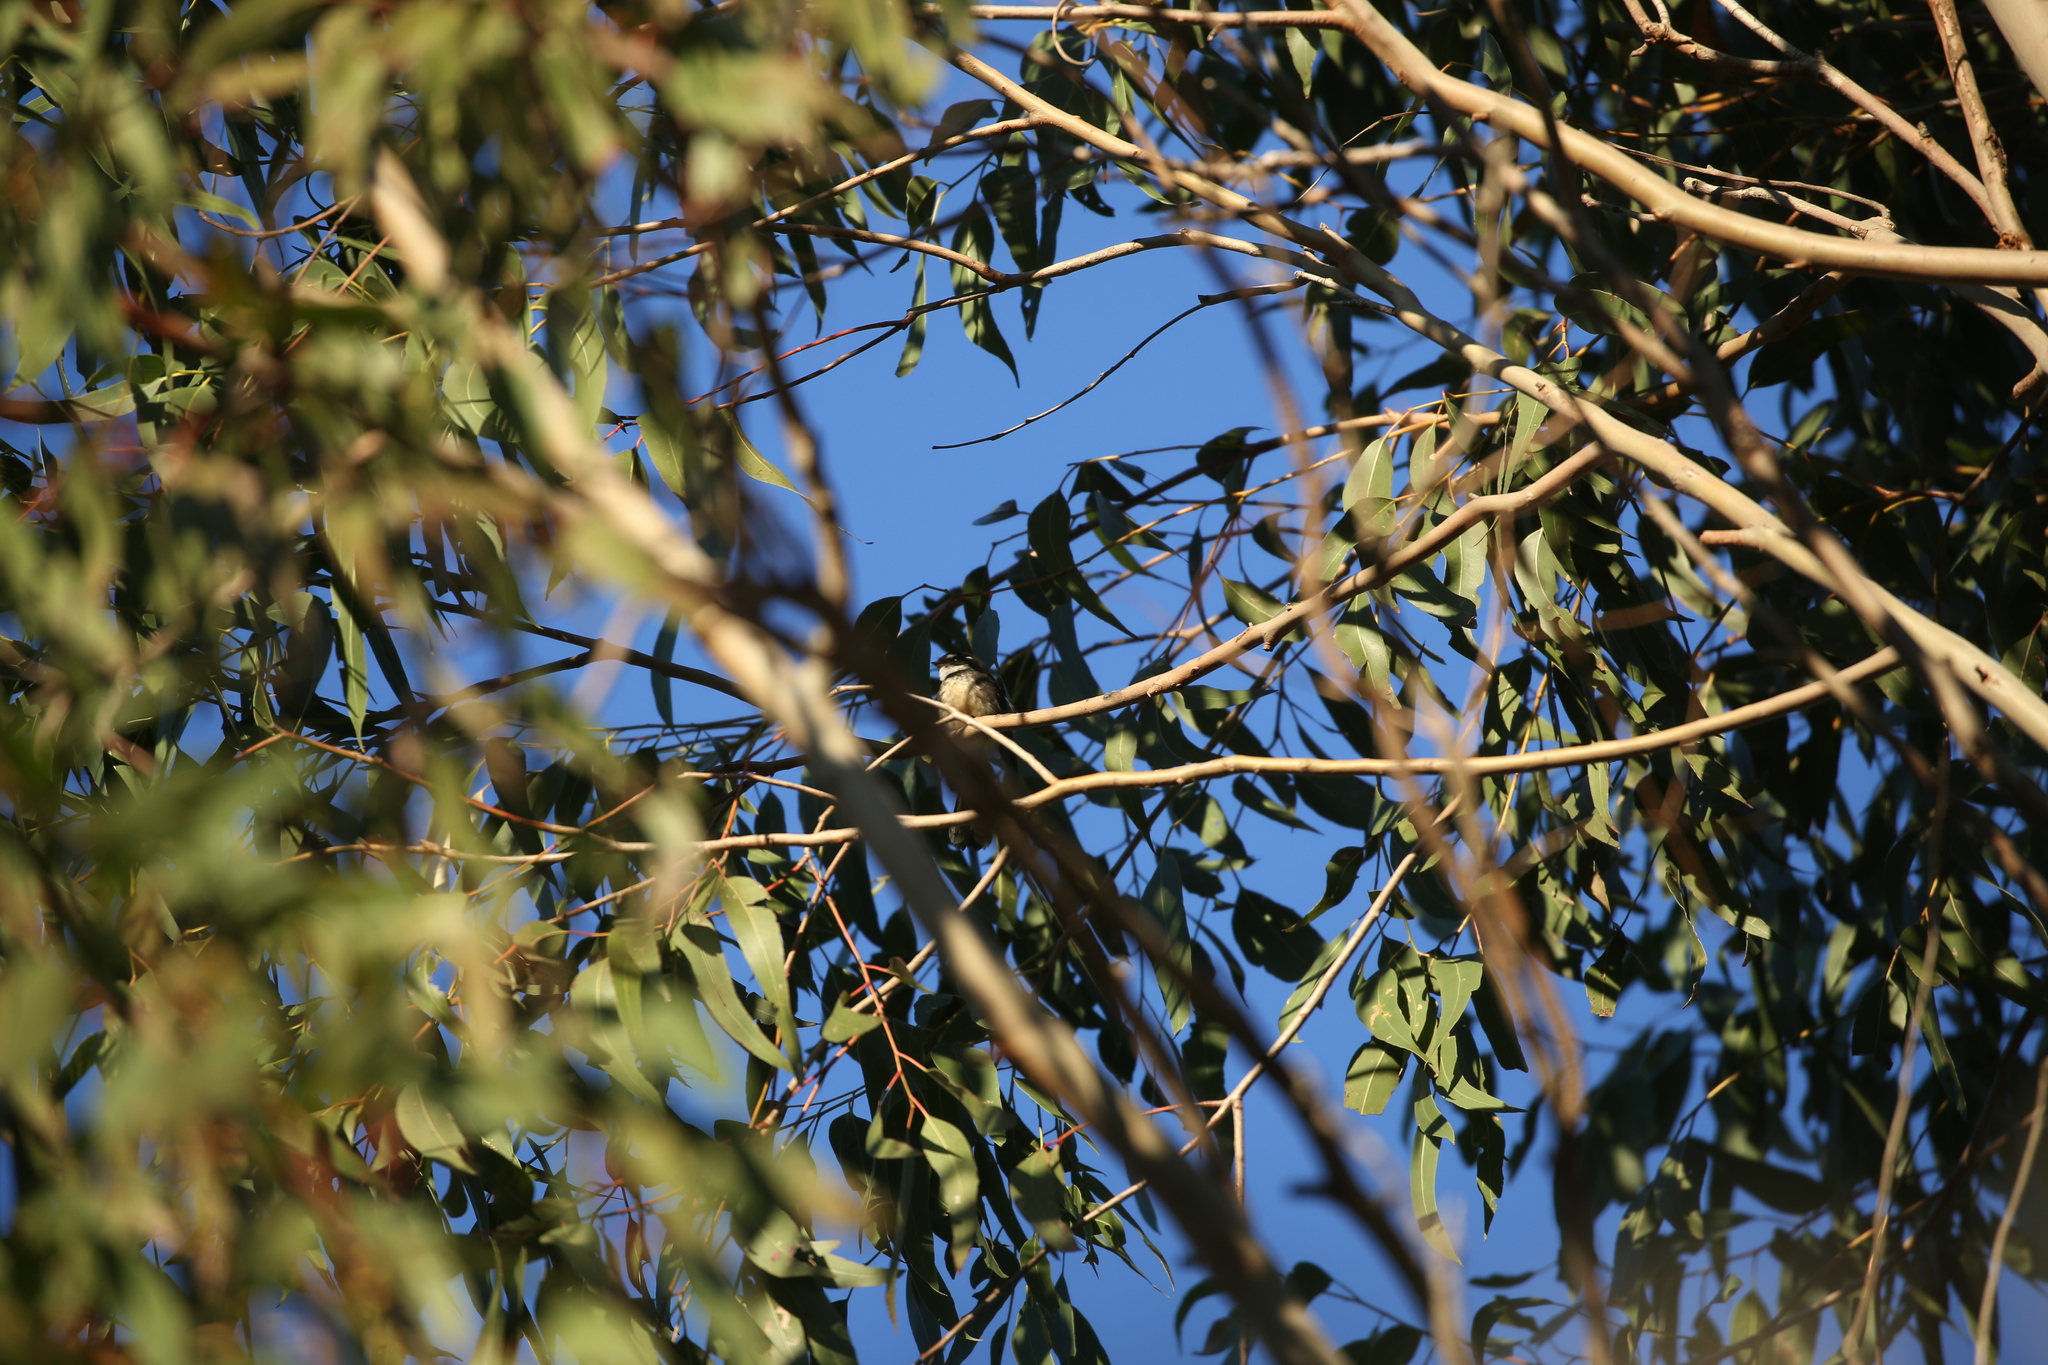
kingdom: Animalia
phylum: Chordata
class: Aves
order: Passeriformes
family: Rhipiduridae
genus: Rhipidura
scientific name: Rhipidura albiscapa
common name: Grey fantail
